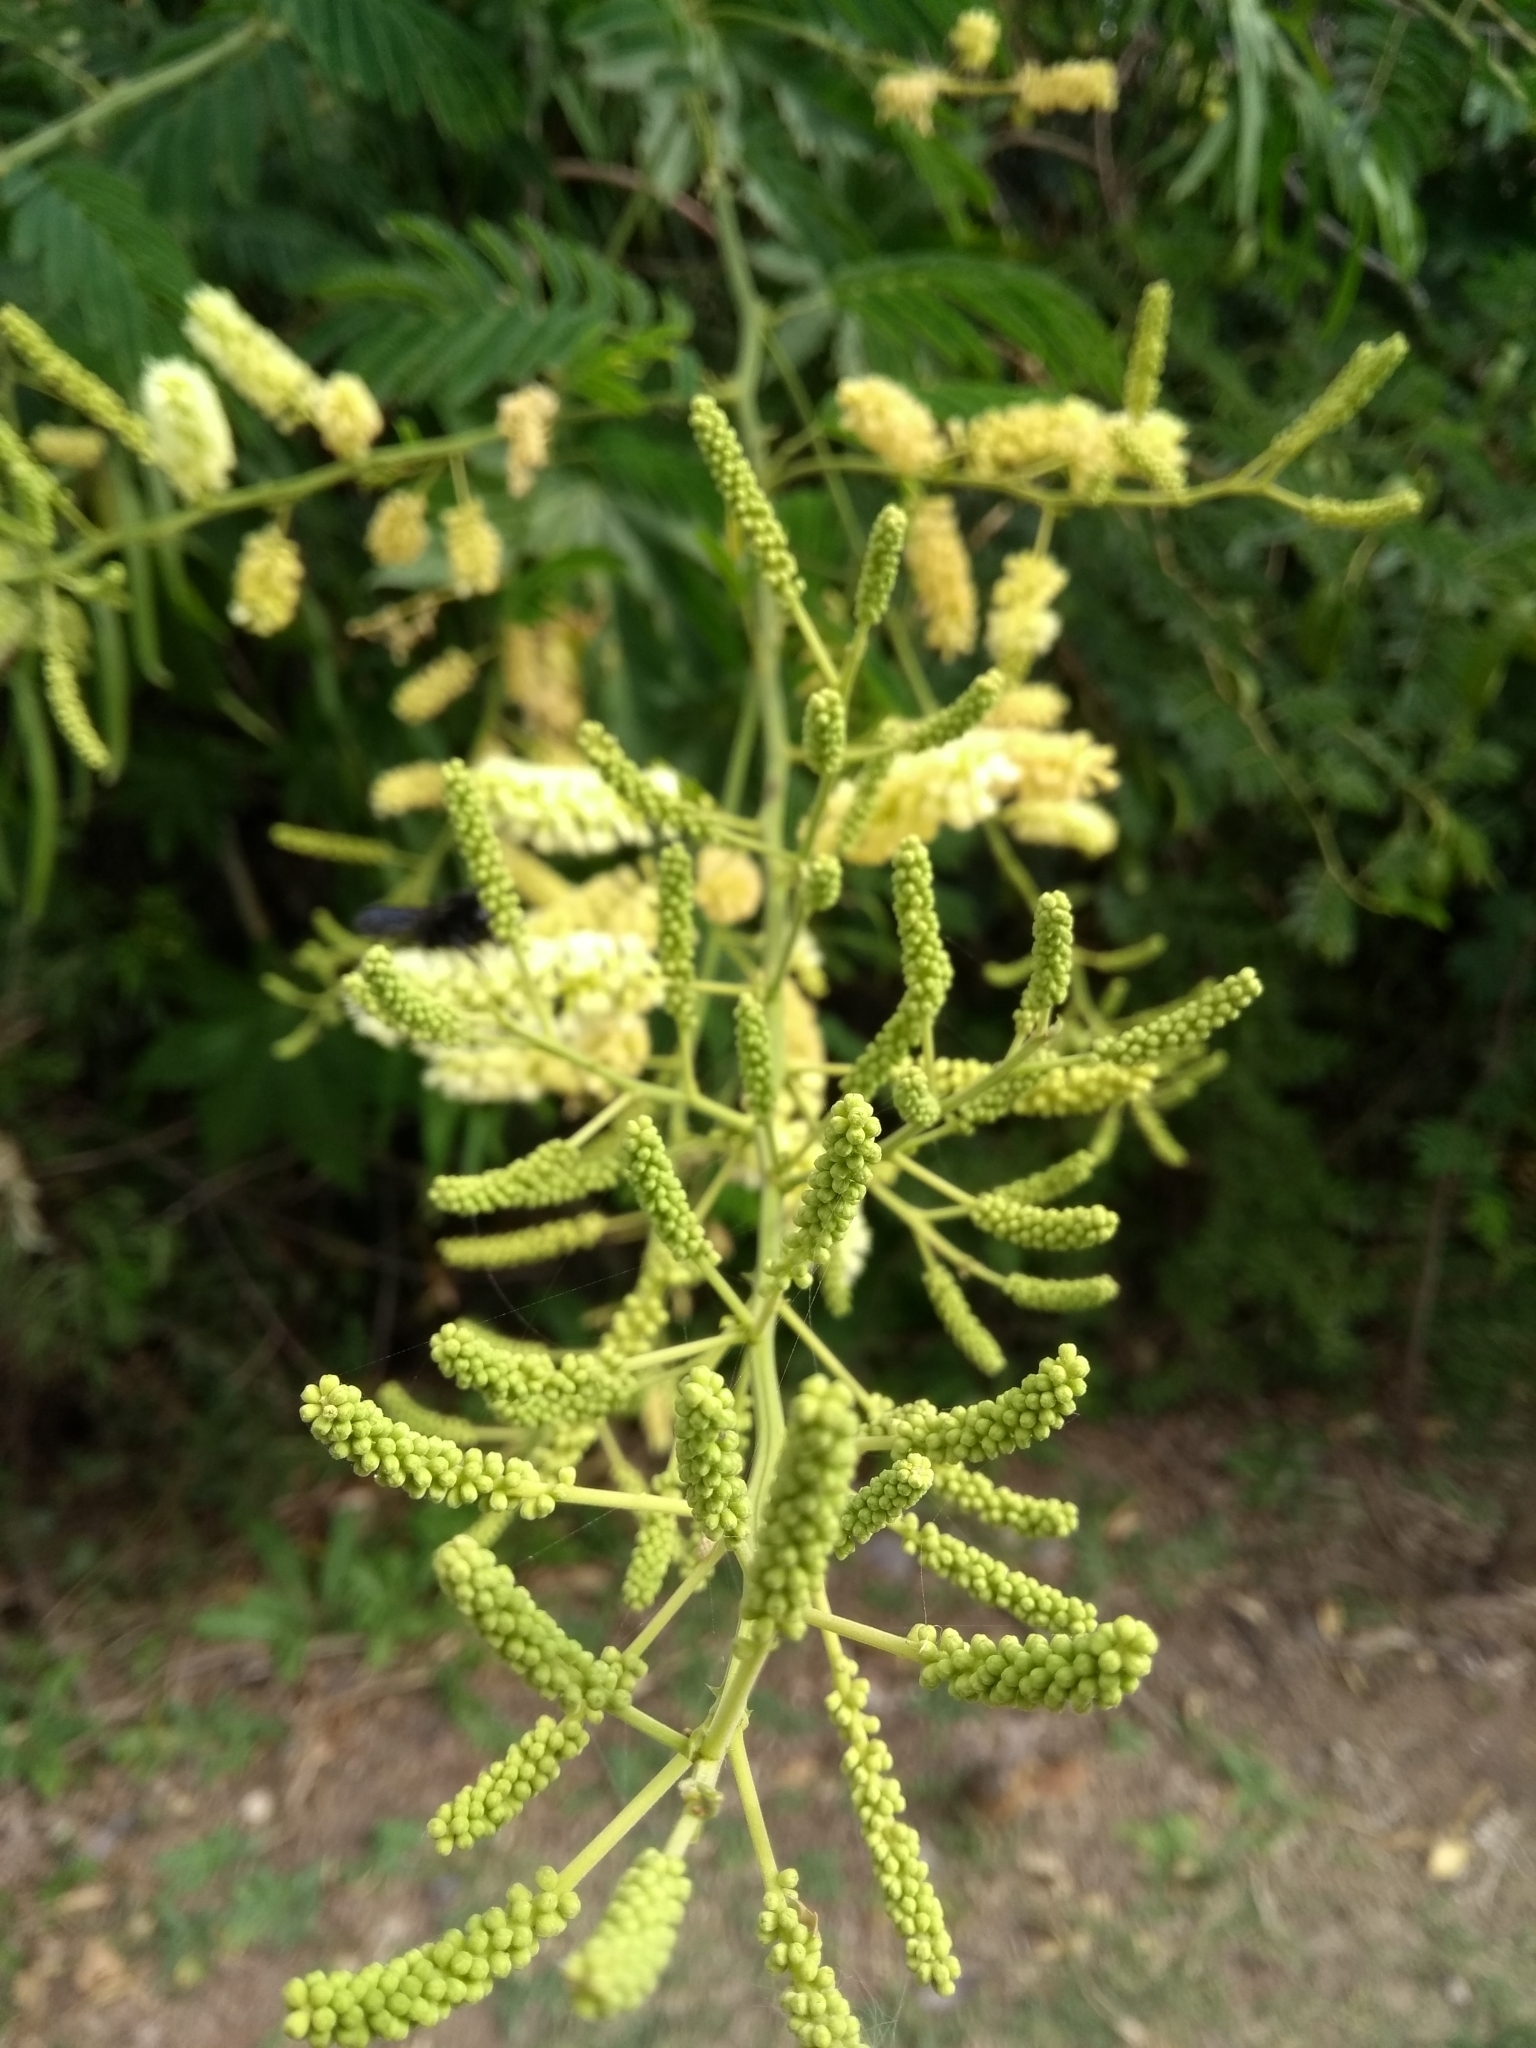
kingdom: Plantae
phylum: Tracheophyta
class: Magnoliopsida
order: Fabales
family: Fabaceae
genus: Senegalia
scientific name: Senegalia bonariensis
